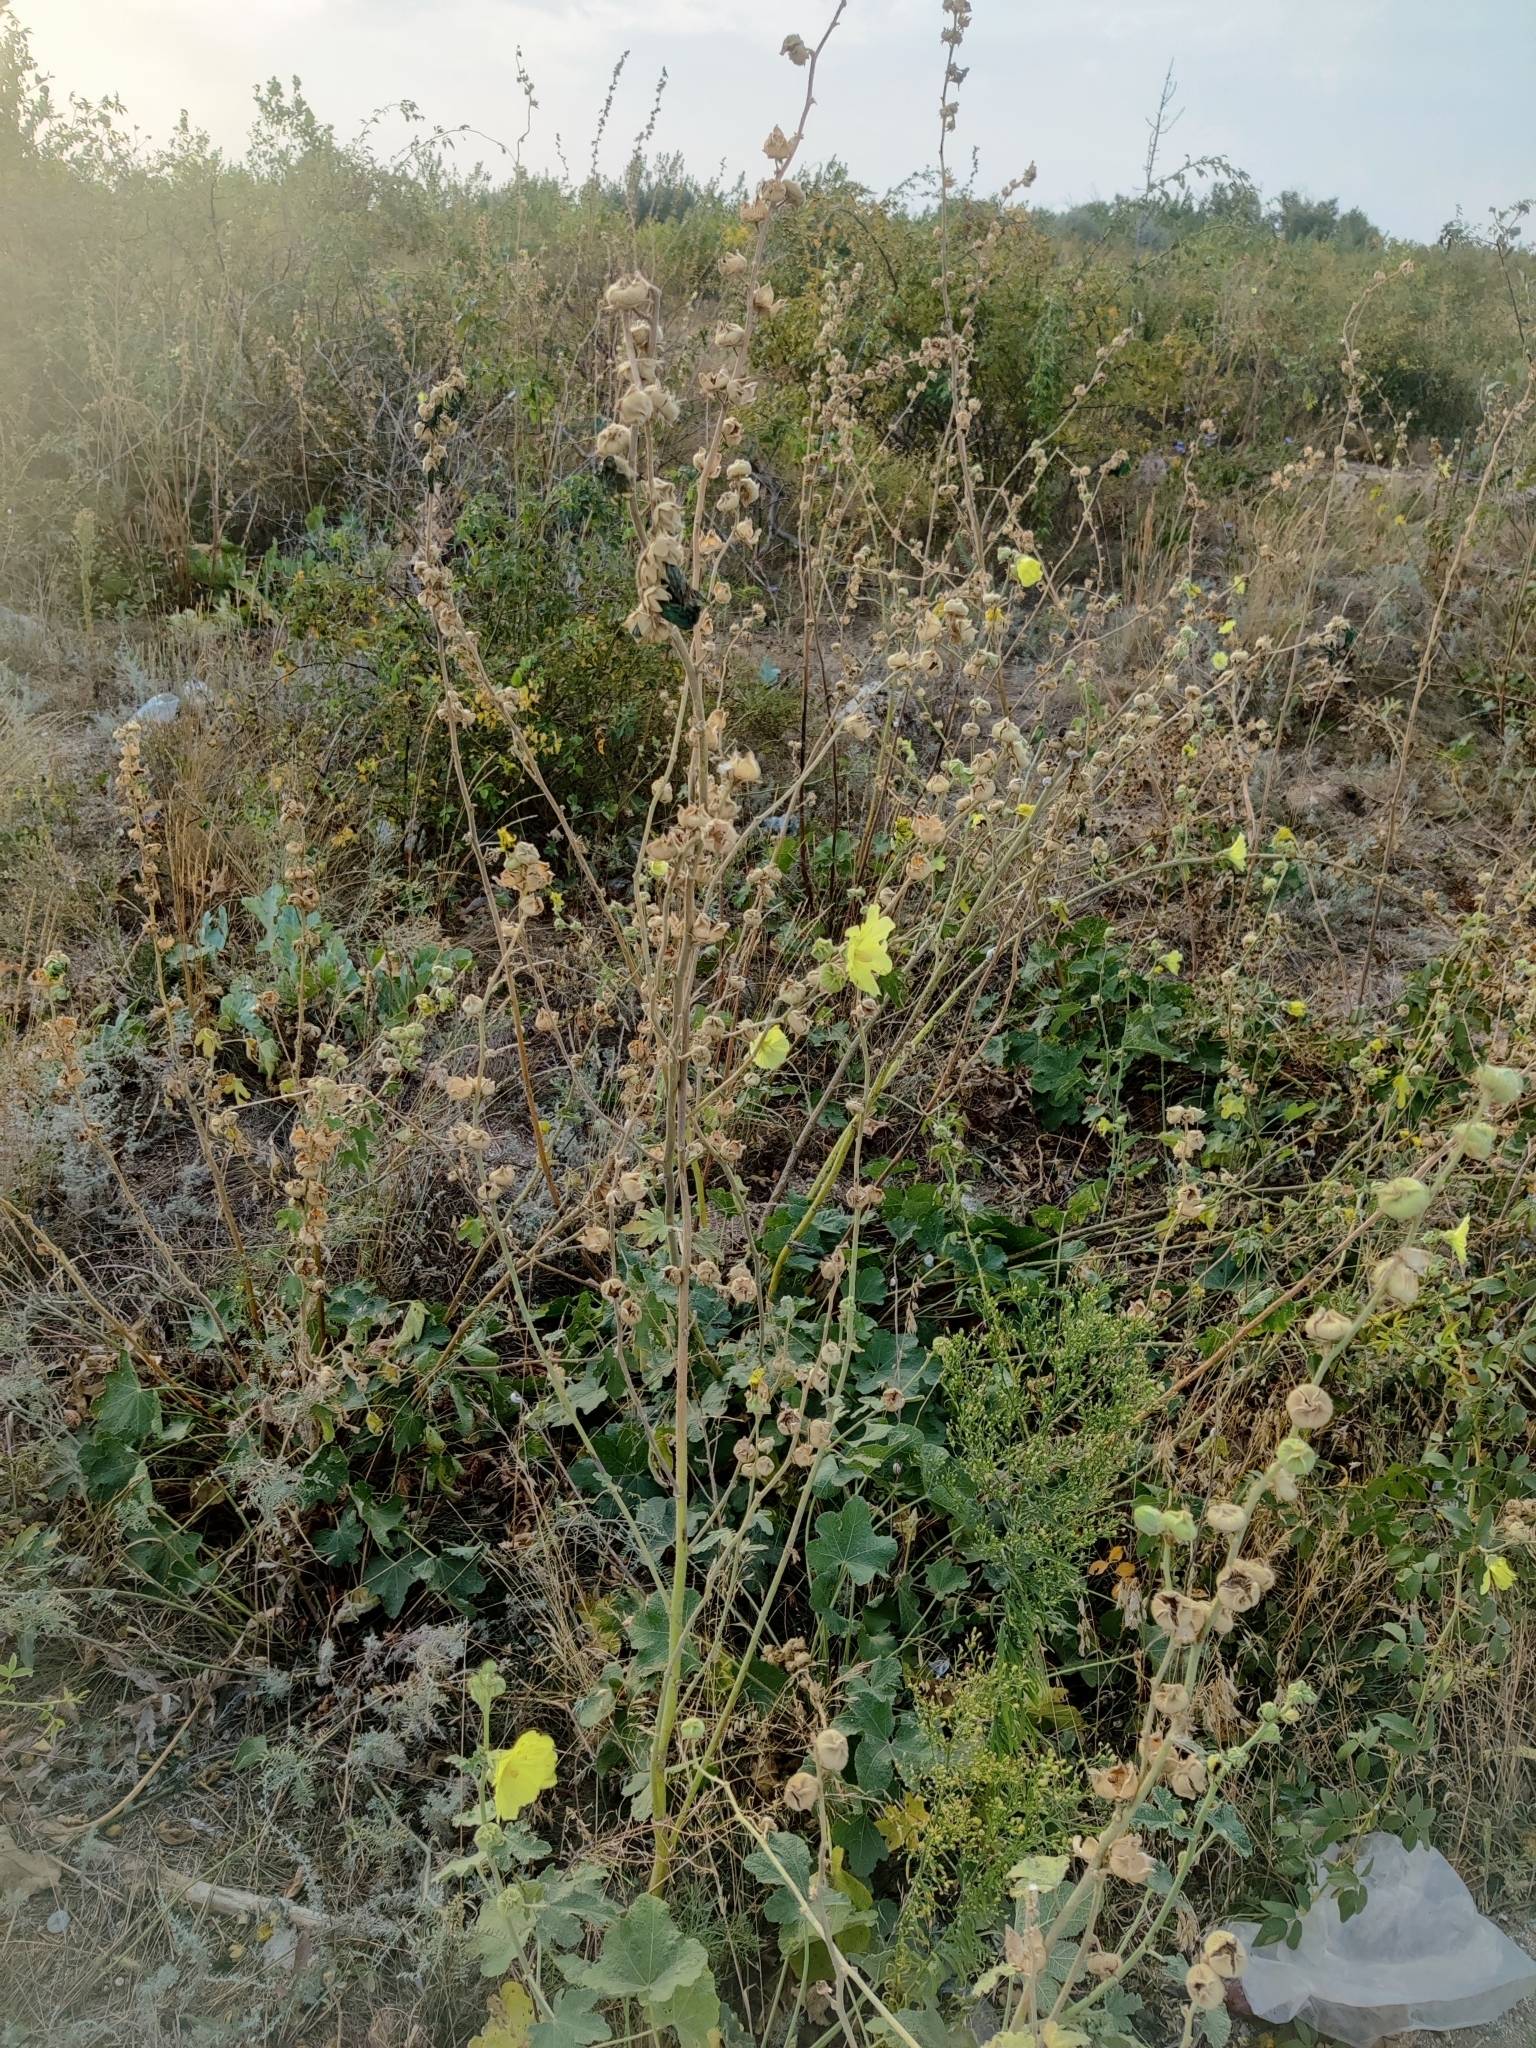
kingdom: Plantae
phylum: Tracheophyta
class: Magnoliopsida
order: Malvales
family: Malvaceae
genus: Alcea
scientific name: Alcea rugosa
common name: Russian hollyhock
